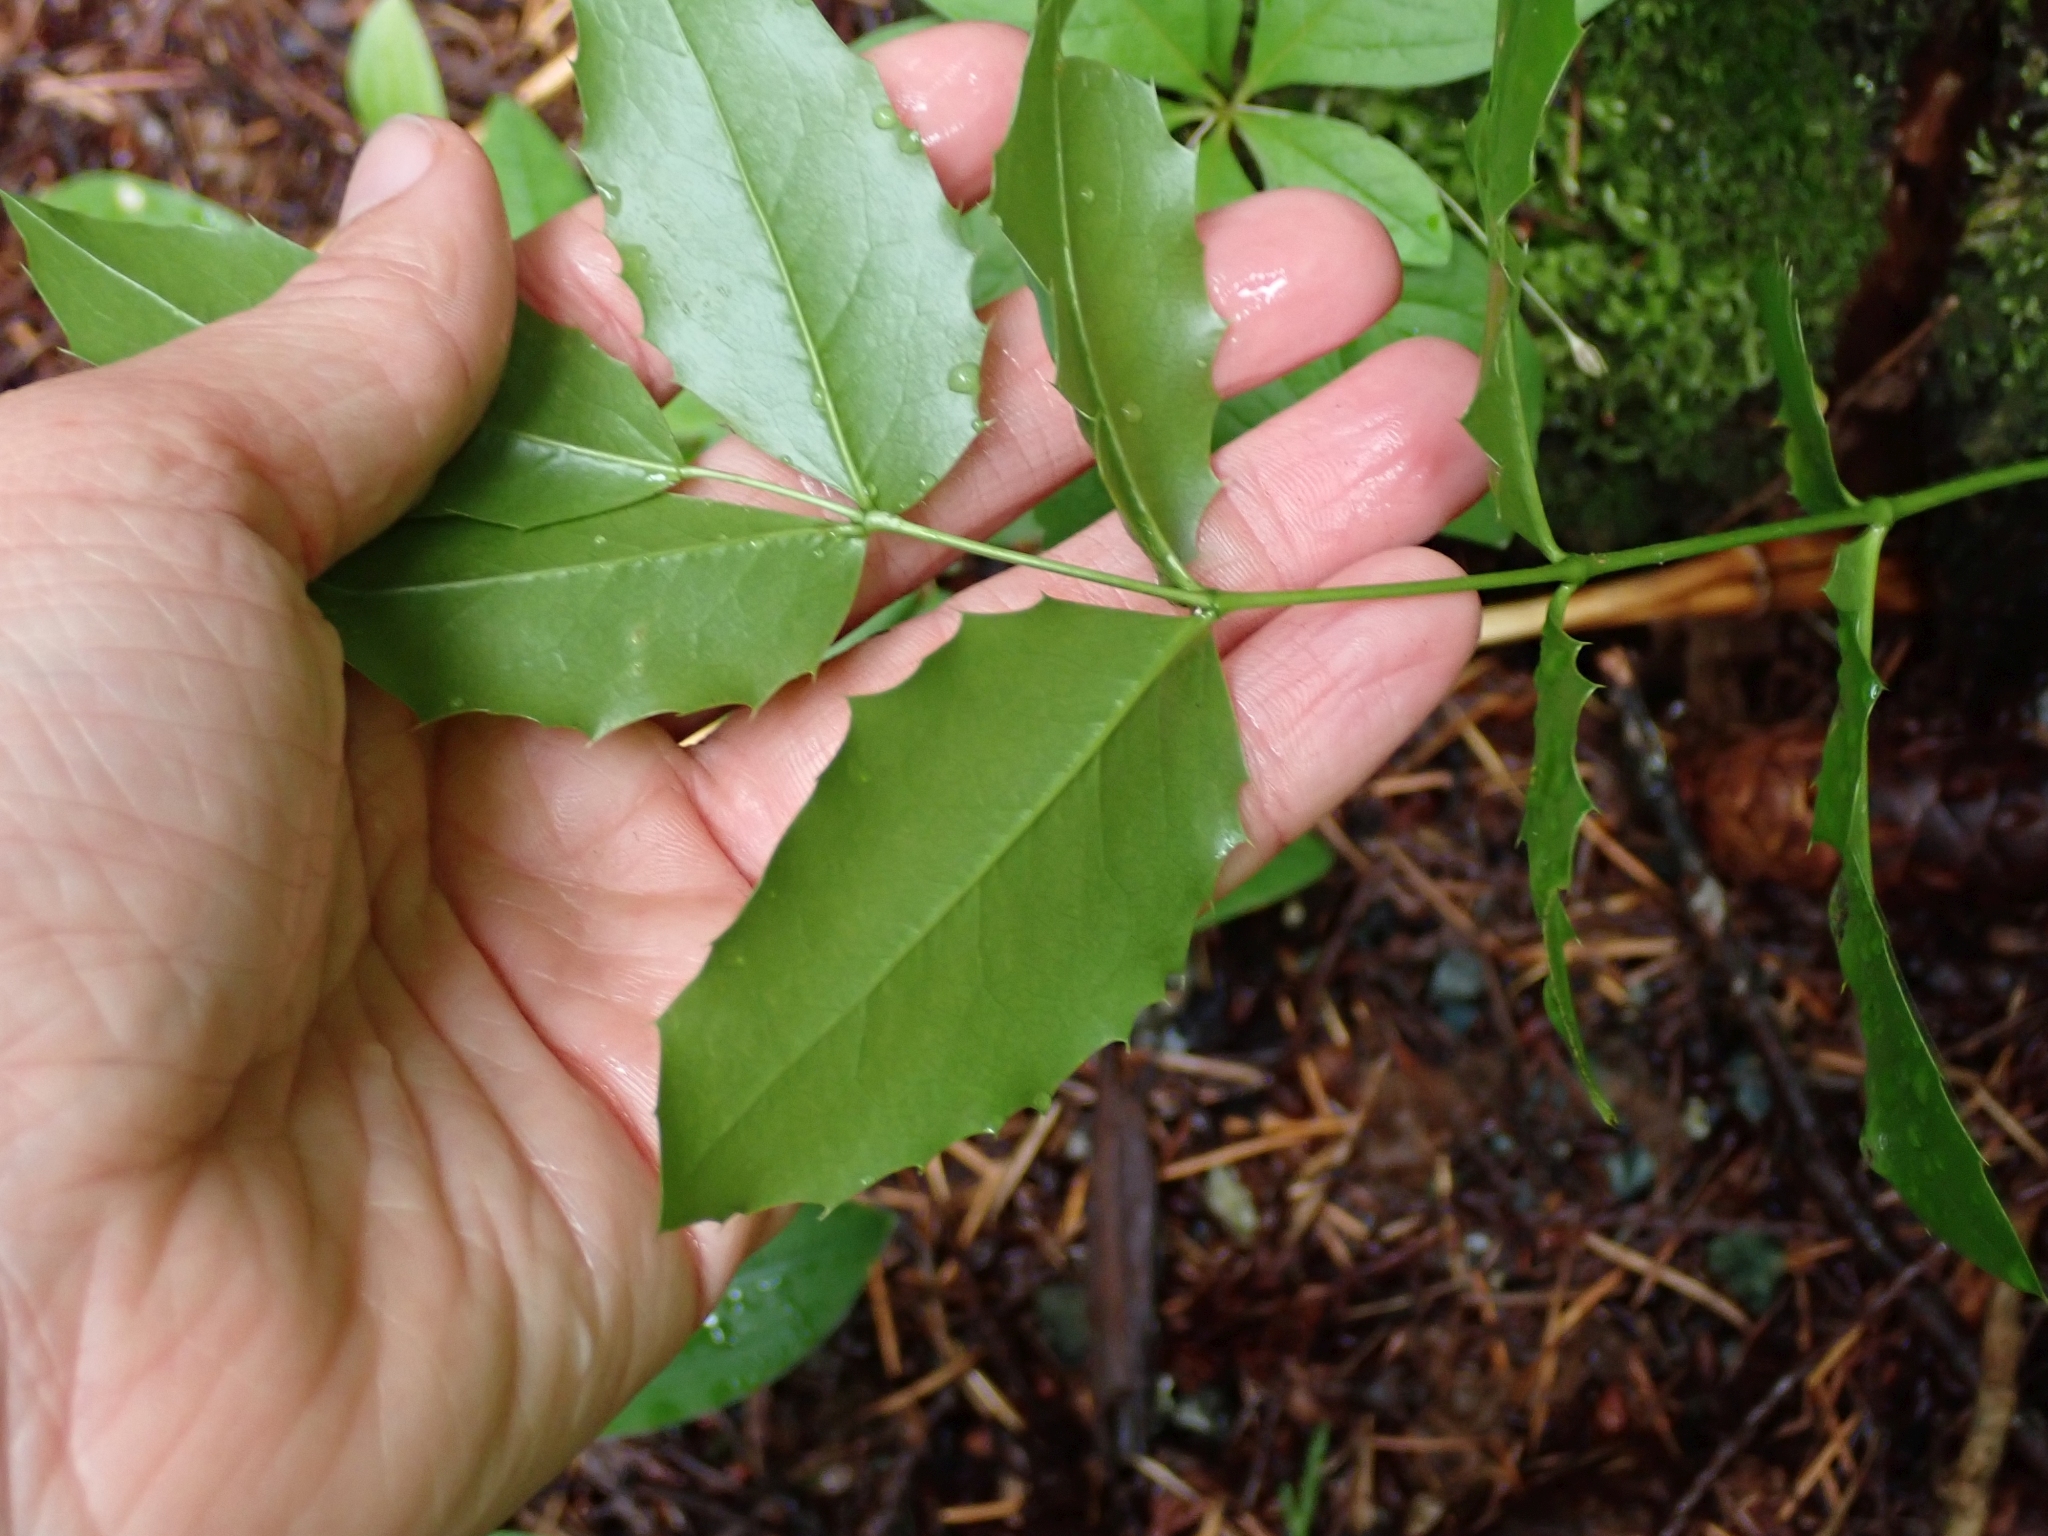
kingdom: Plantae
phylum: Tracheophyta
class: Magnoliopsida
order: Ranunculales
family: Berberidaceae
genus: Mahonia
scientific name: Mahonia aquifolium
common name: Oregon-grape
